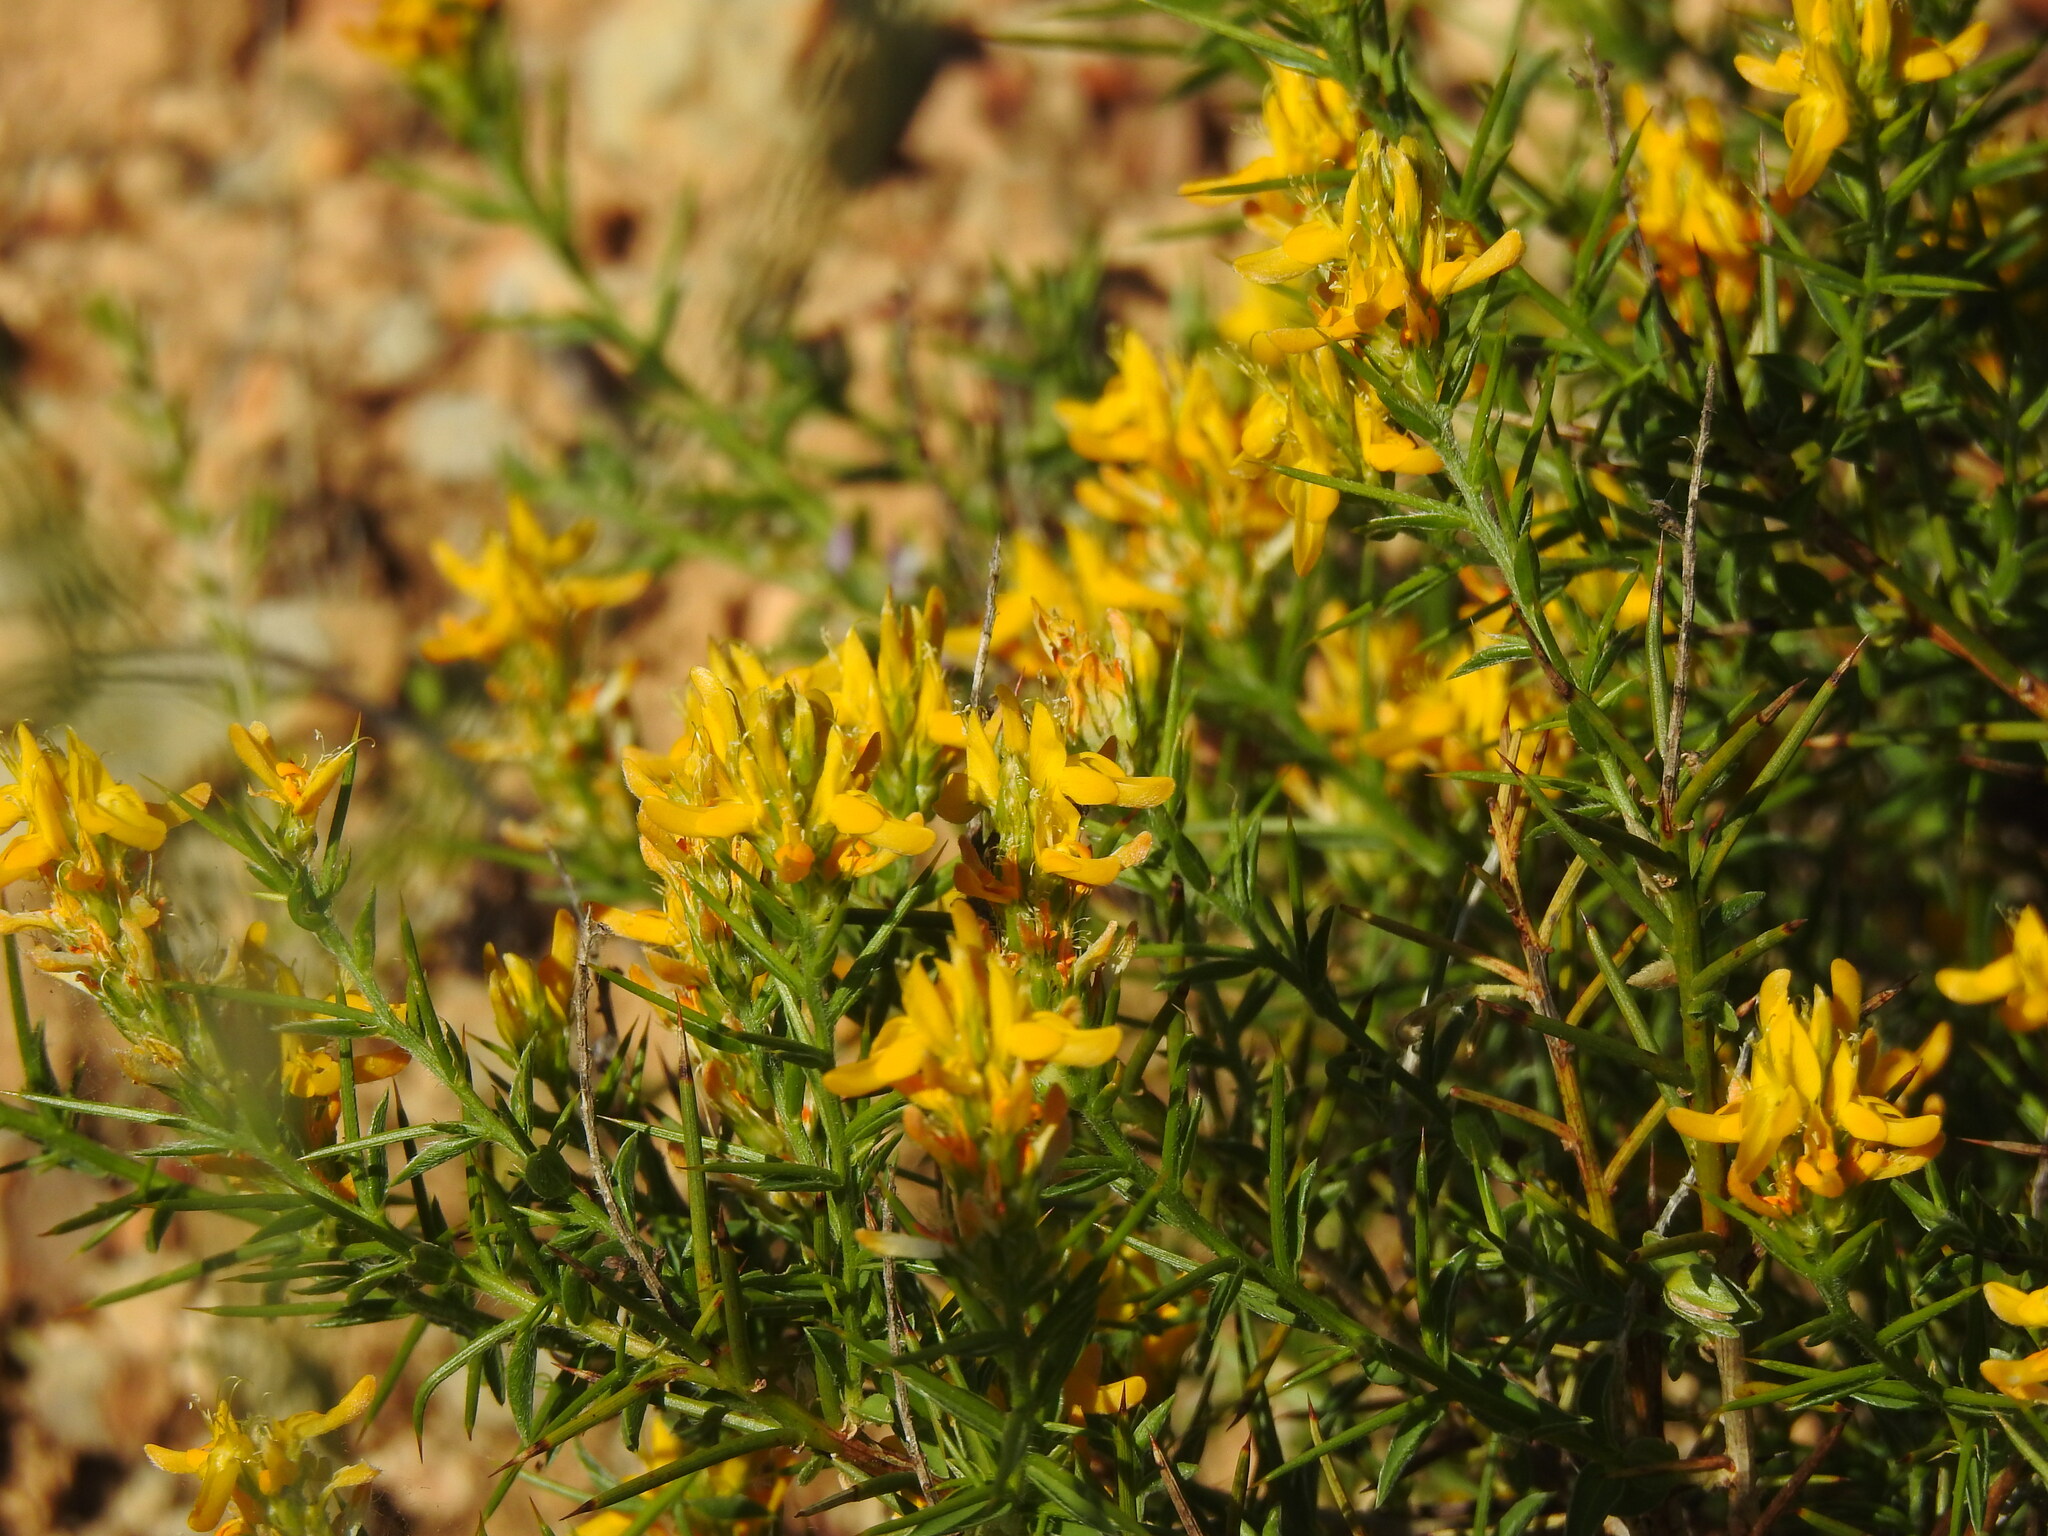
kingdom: Plantae
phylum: Tracheophyta
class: Magnoliopsida
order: Fabales
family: Fabaceae
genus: Genista
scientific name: Genista hirsuta
